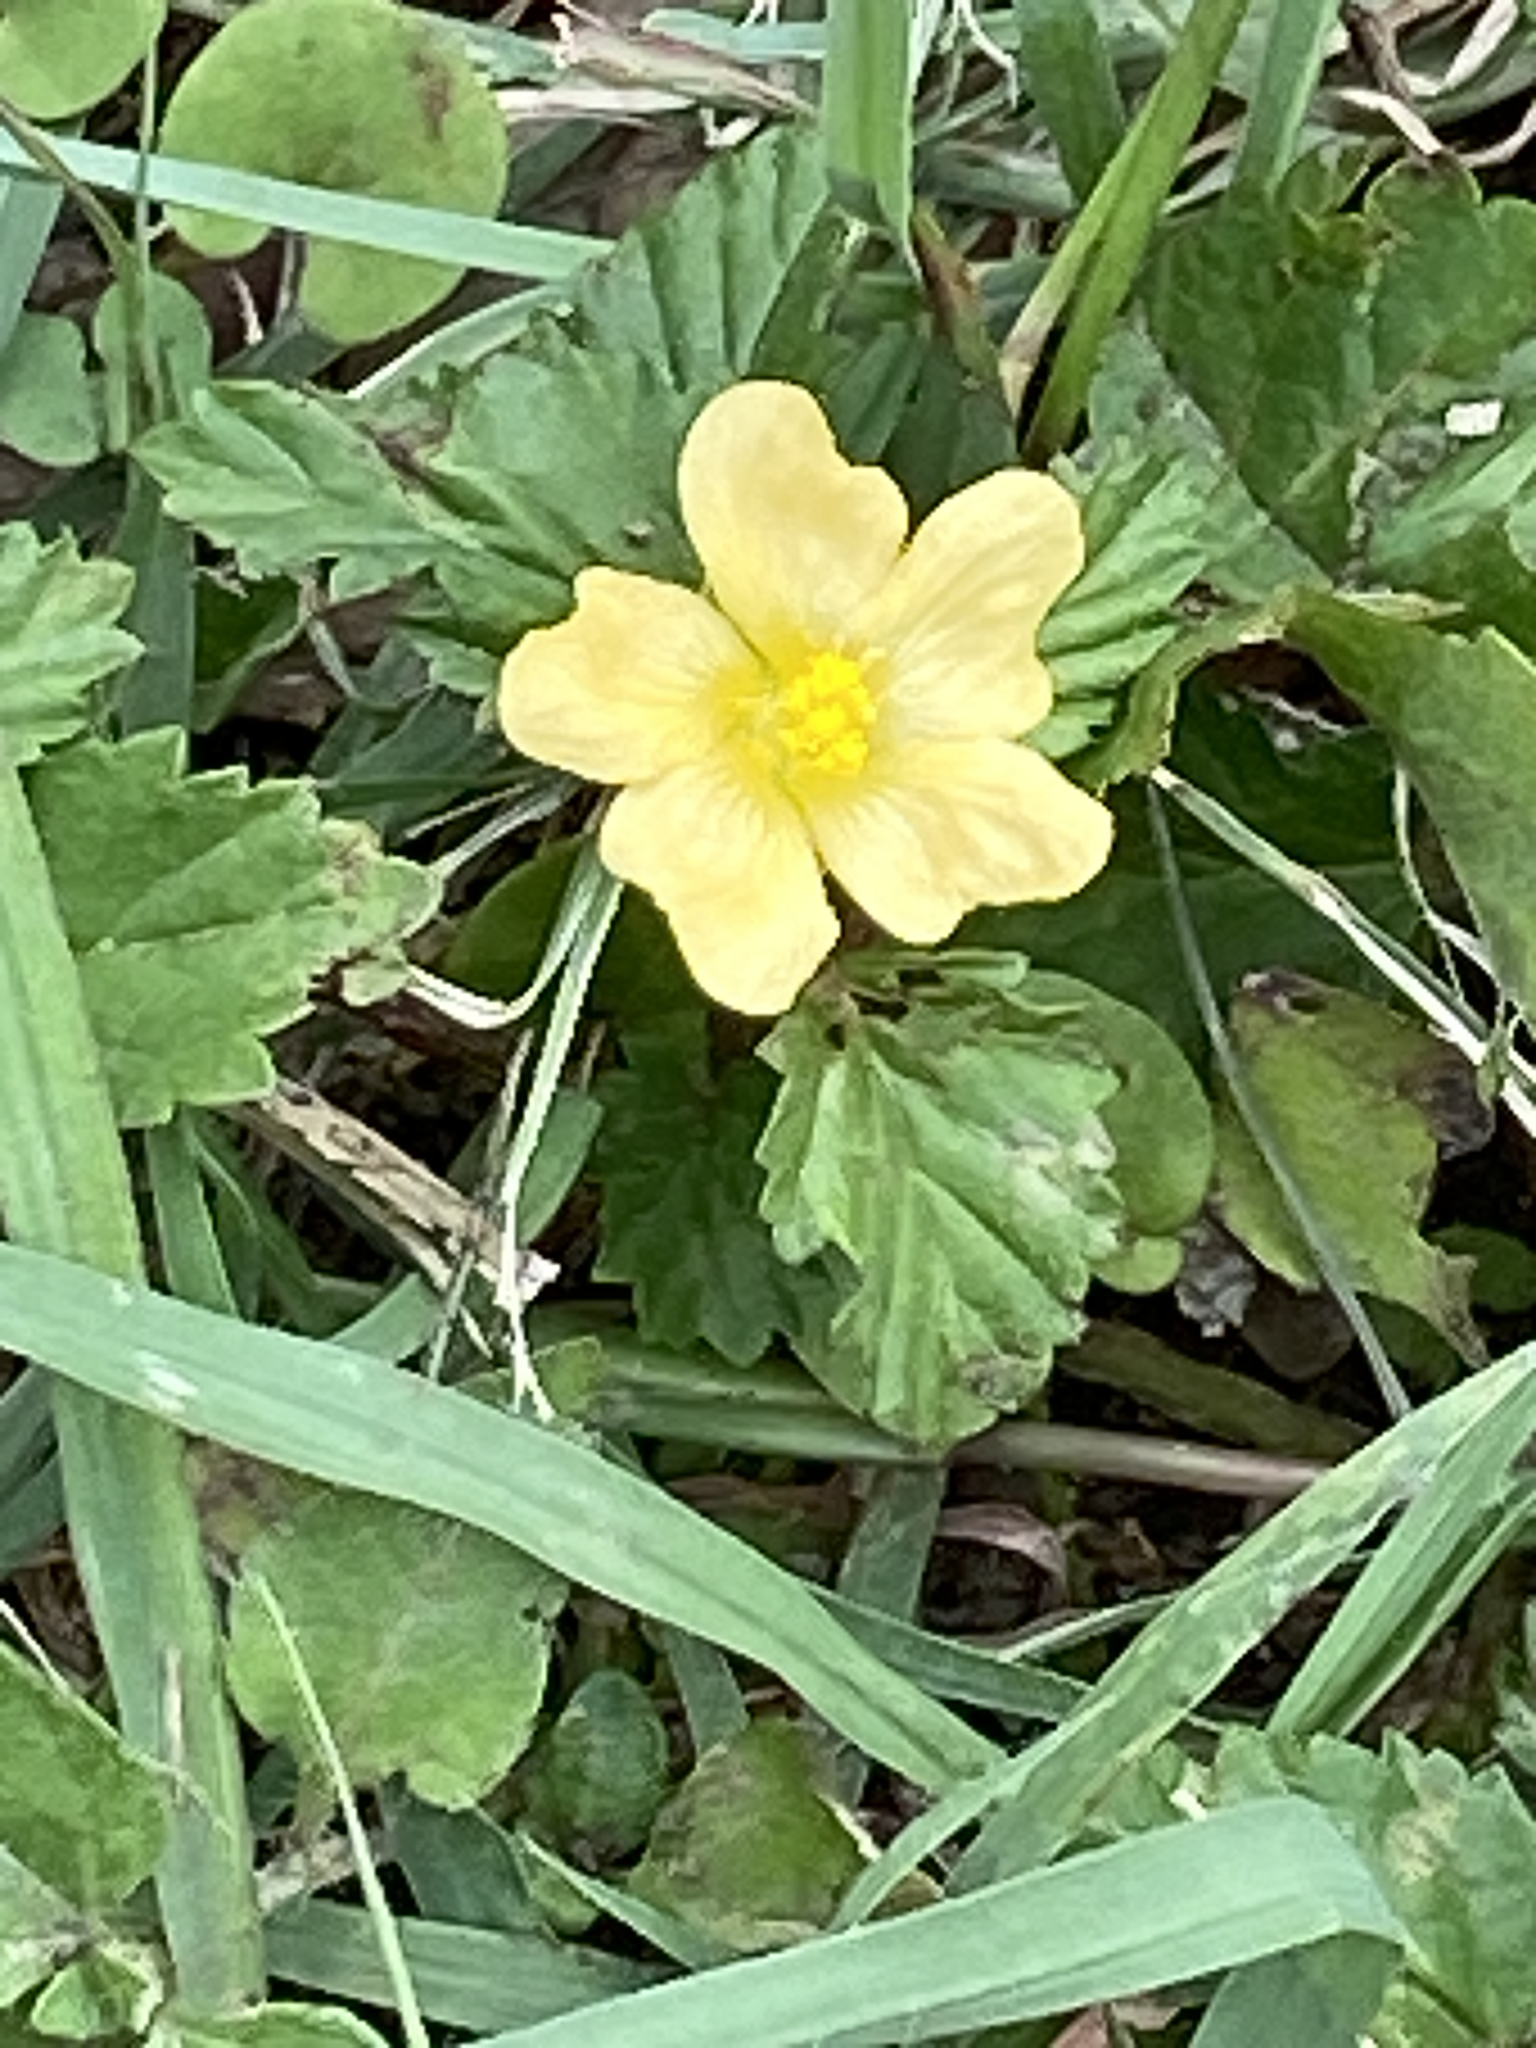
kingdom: Plantae
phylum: Tracheophyta
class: Magnoliopsida
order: Malvales
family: Malvaceae
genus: Malvastrum
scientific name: Malvastrum coromandelianum
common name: Threelobe false mallow
